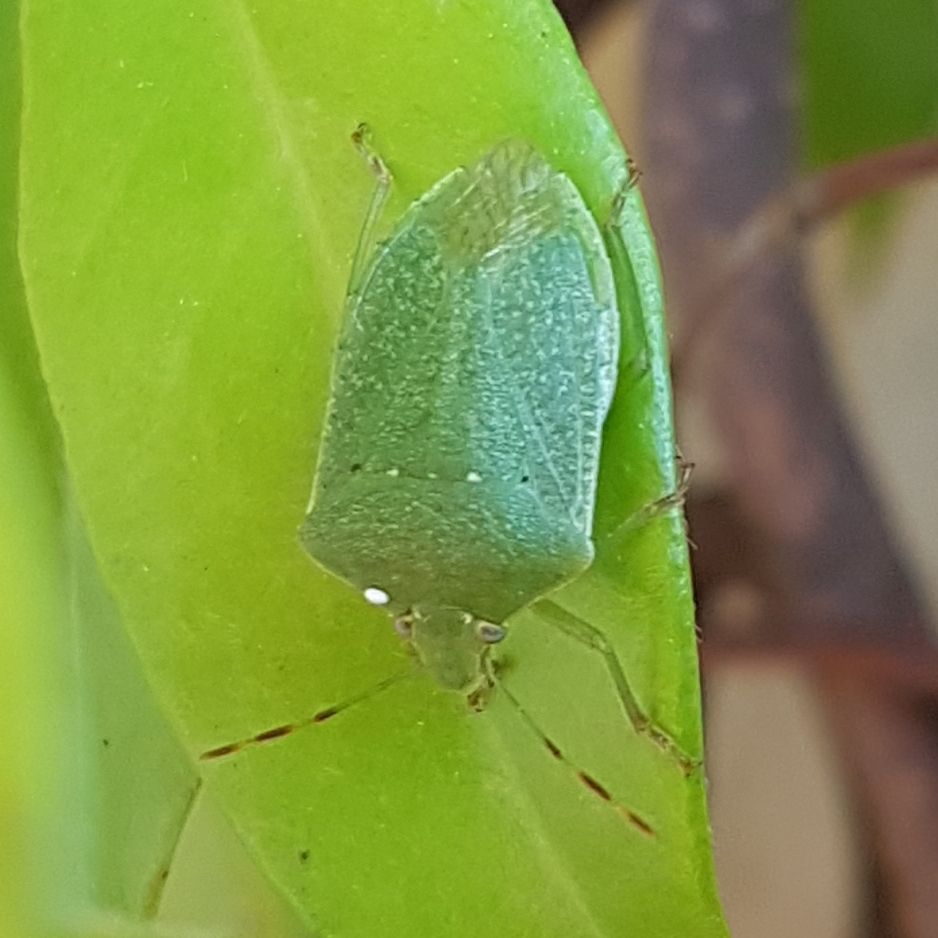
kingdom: Animalia
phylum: Arthropoda
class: Insecta
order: Hemiptera
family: Pentatomidae
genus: Nezara
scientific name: Nezara viridula
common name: Southern green stink bug
